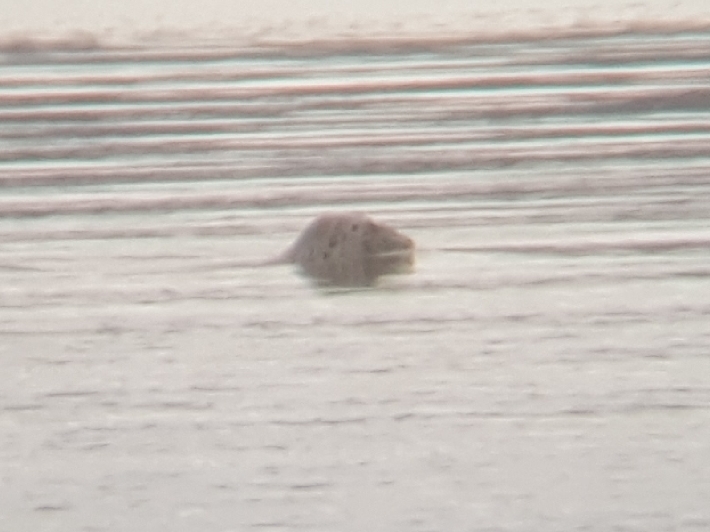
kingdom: Animalia
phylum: Chordata
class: Mammalia
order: Carnivora
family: Phocidae
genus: Phoca
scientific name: Phoca vitulina
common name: Harbor seal
